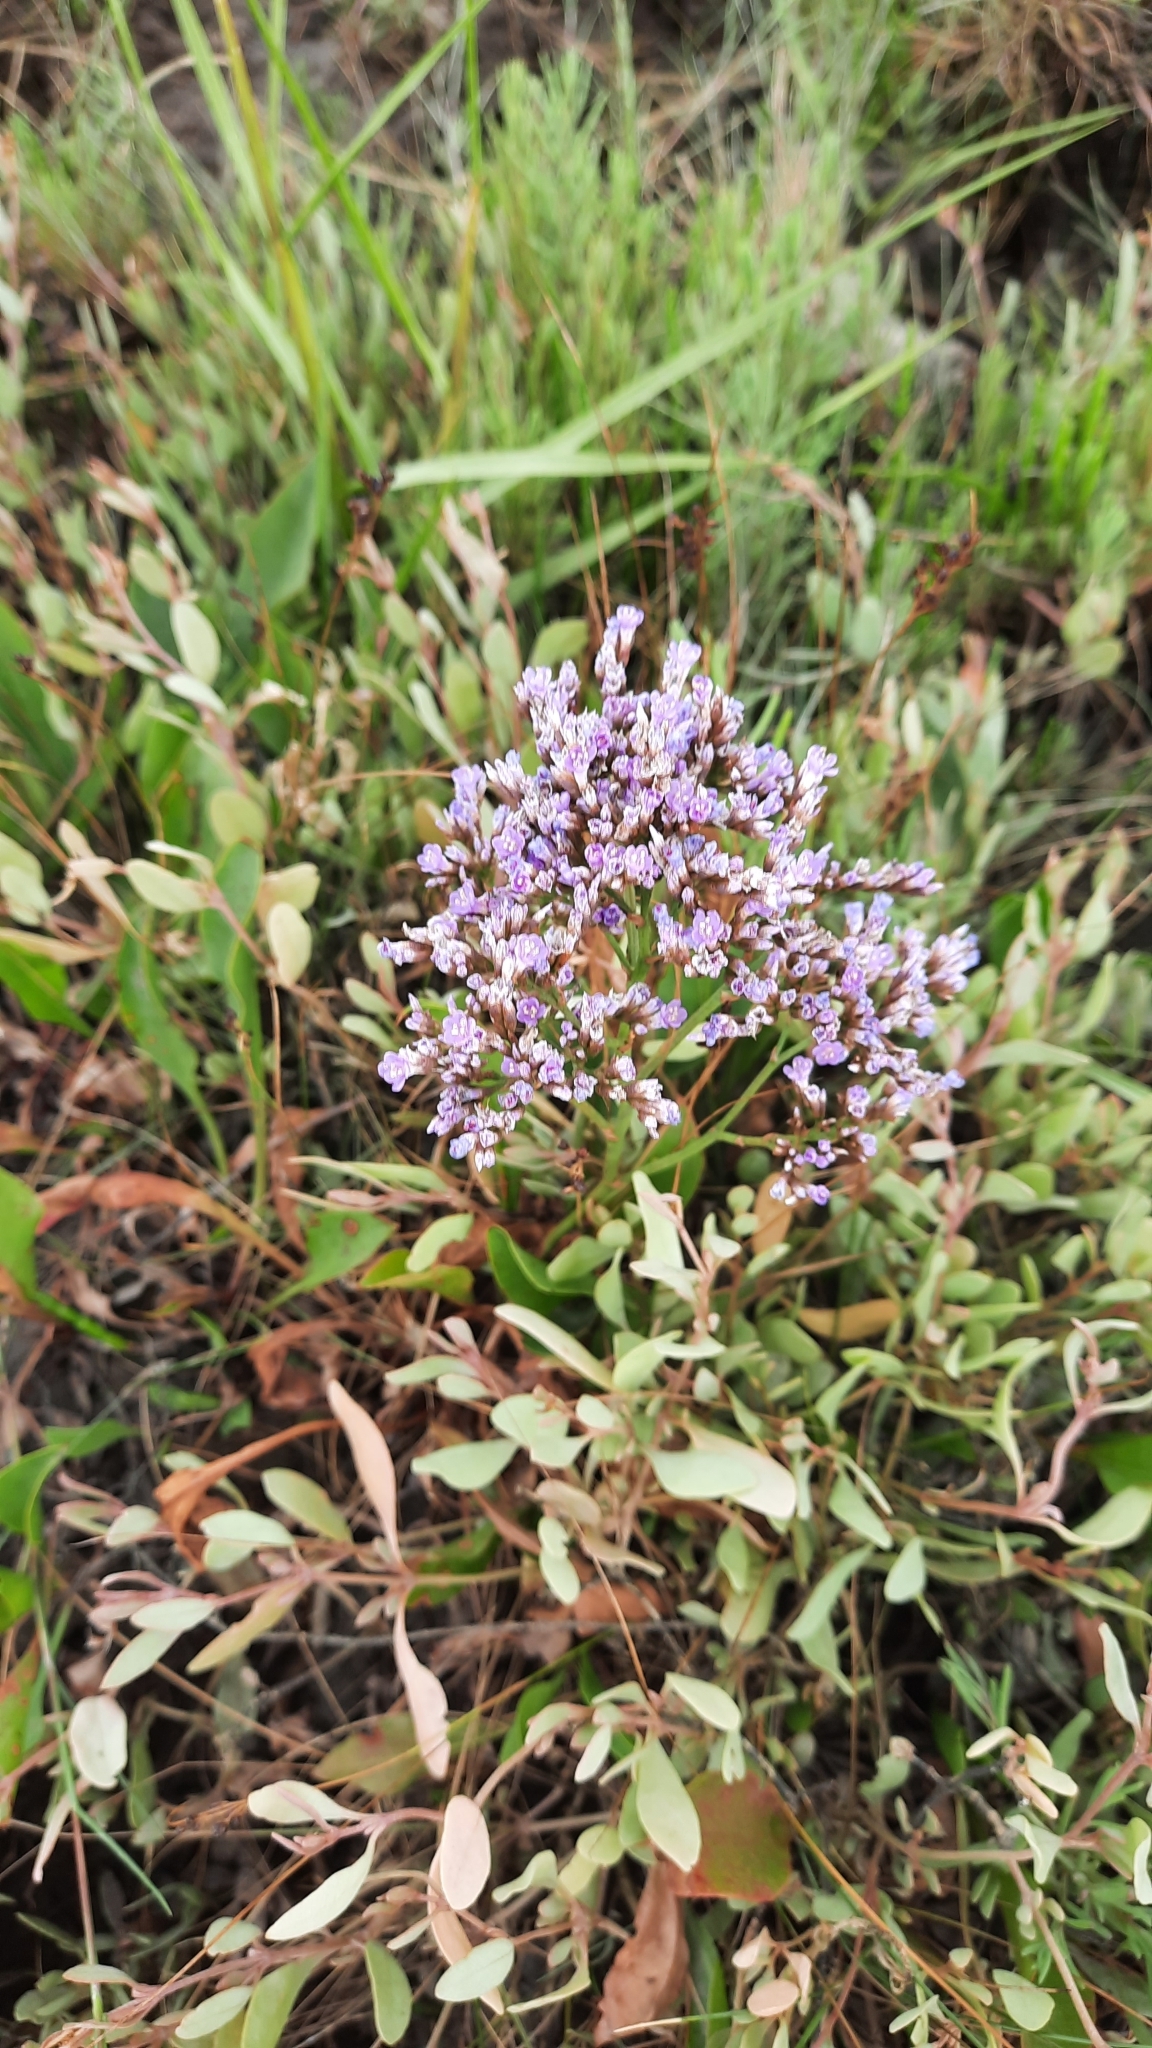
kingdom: Plantae
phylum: Tracheophyta
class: Magnoliopsida
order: Caryophyllales
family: Plumbaginaceae
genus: Limonium
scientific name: Limonium vulgare
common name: Common sea-lavender
